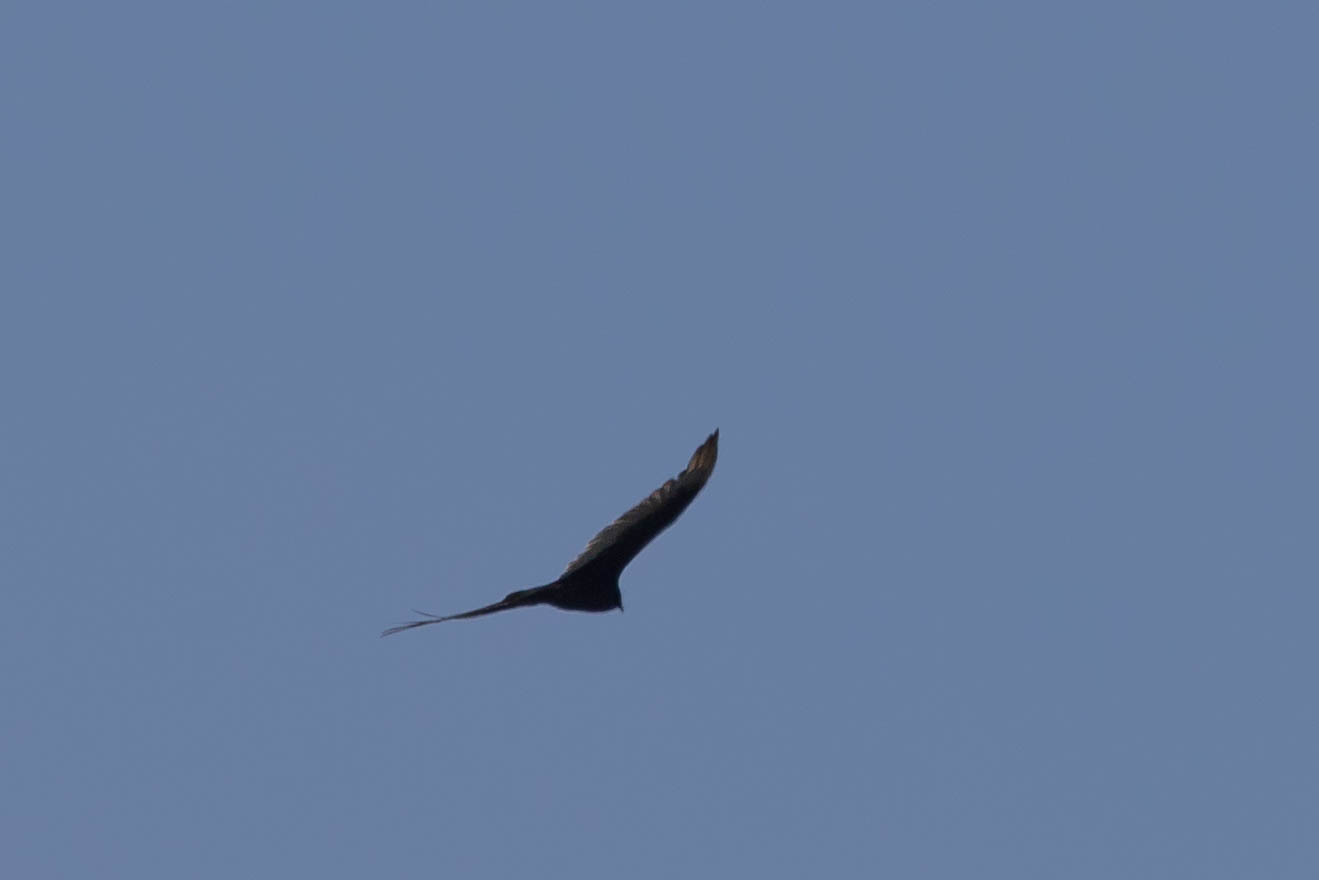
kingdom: Animalia
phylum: Chordata
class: Aves
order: Accipitriformes
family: Cathartidae
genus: Cathartes
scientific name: Cathartes aura
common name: Turkey vulture
